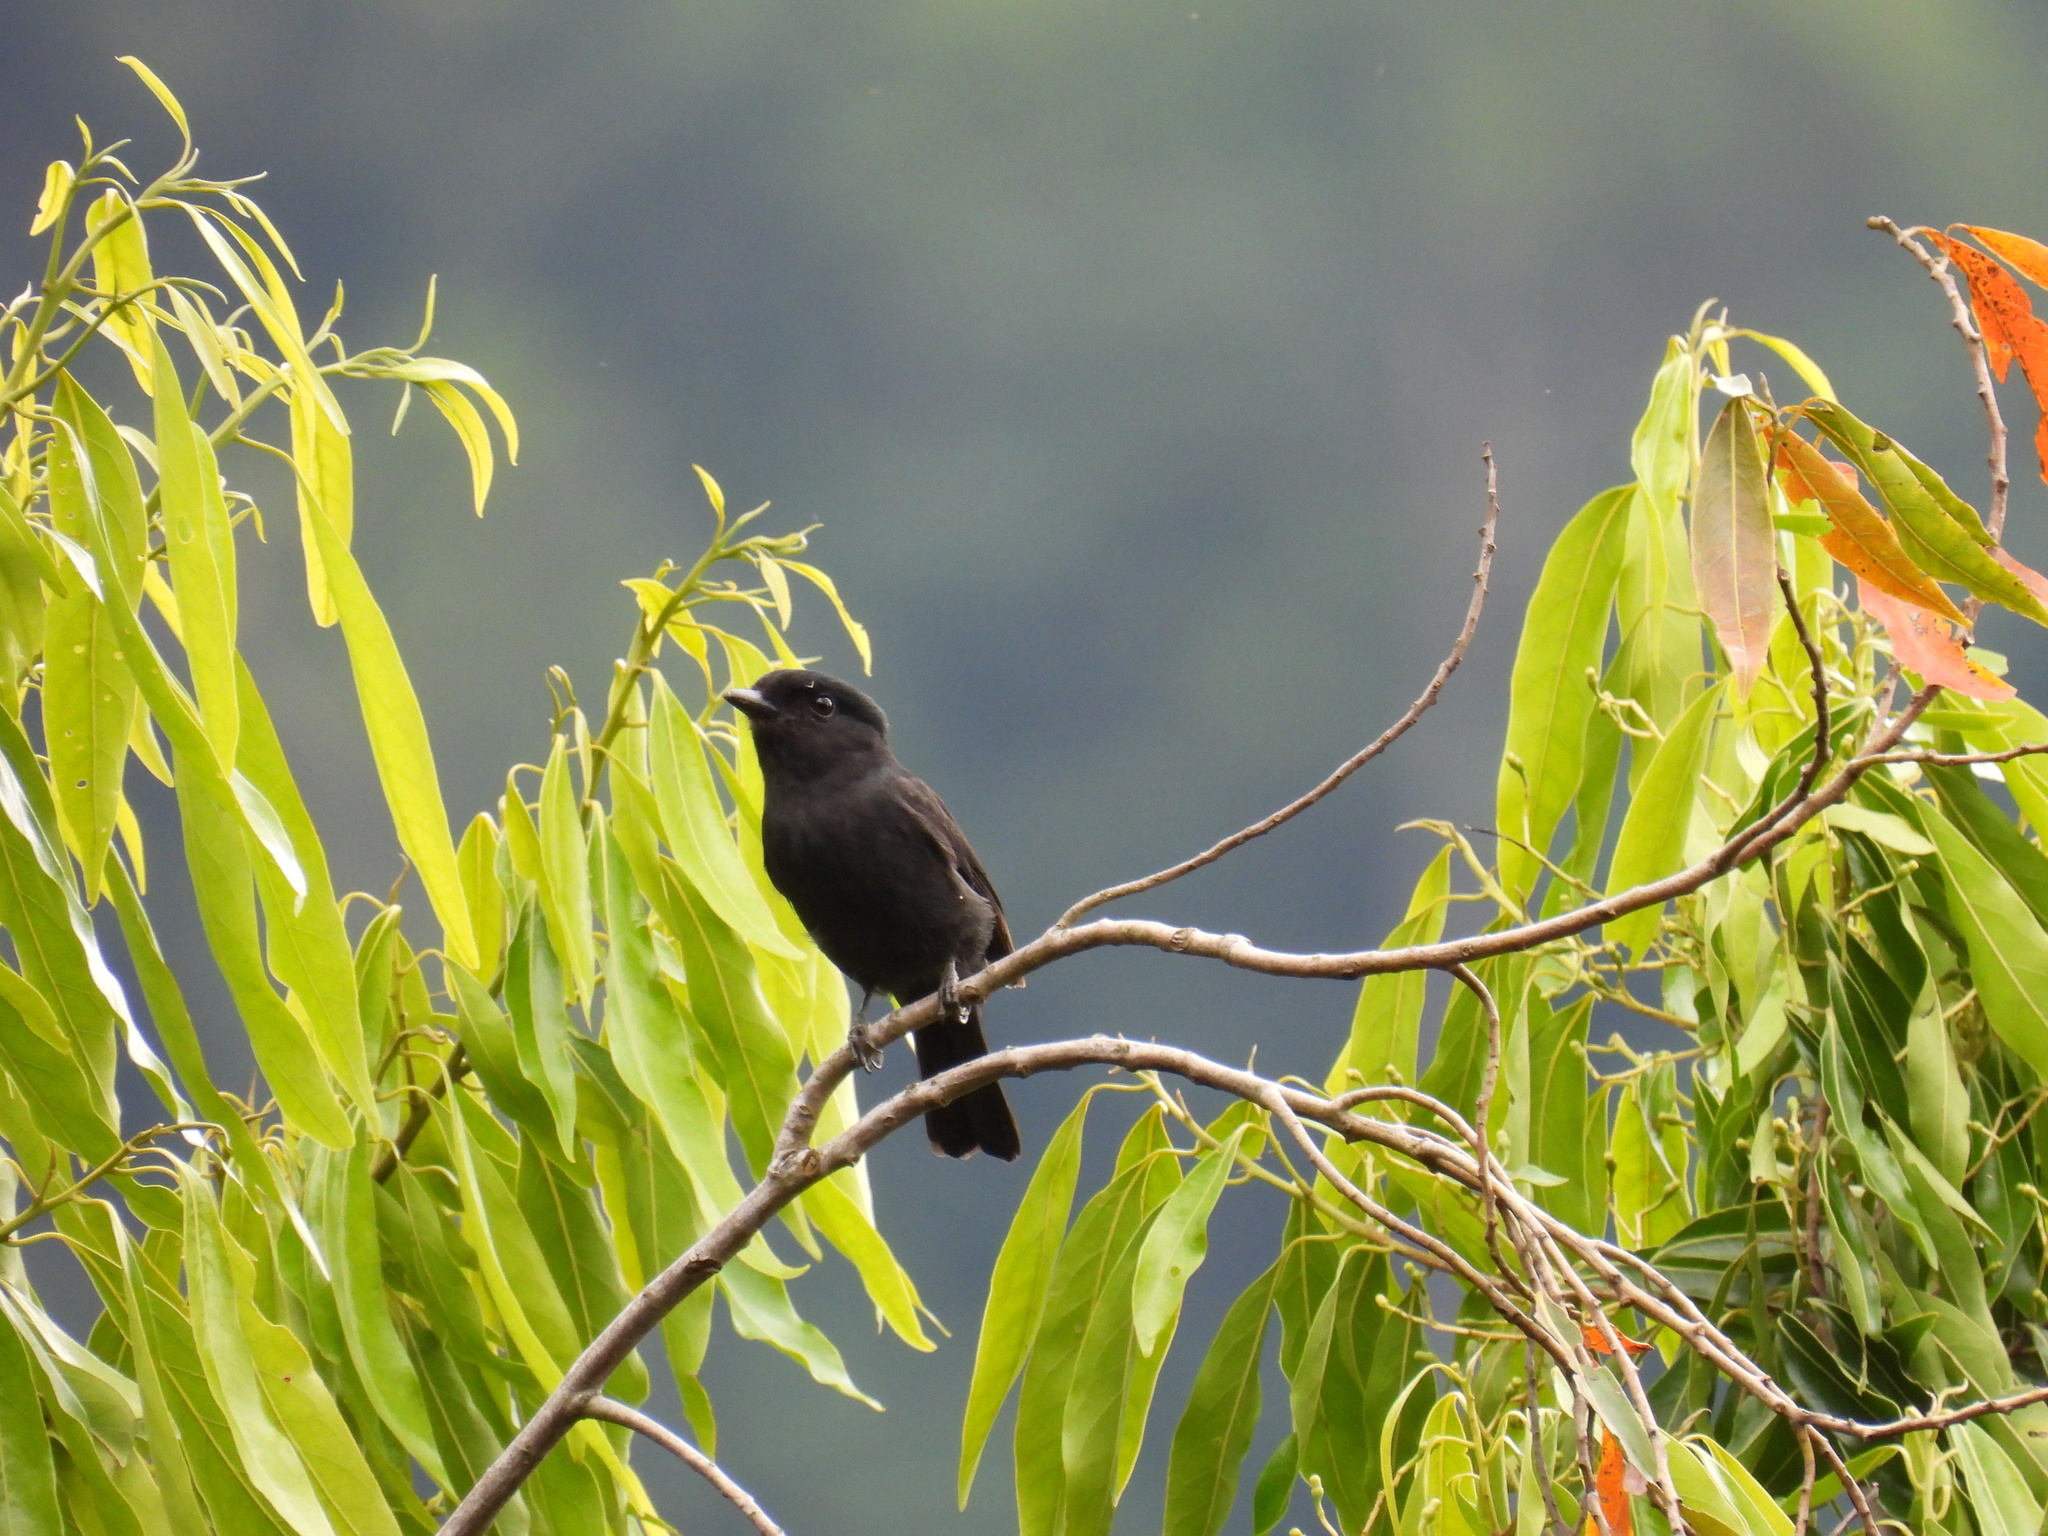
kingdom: Animalia
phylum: Chordata
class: Aves
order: Passeriformes
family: Cotingidae
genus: Pachyramphus
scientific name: Pachyramphus niger
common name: Jamaican becard
